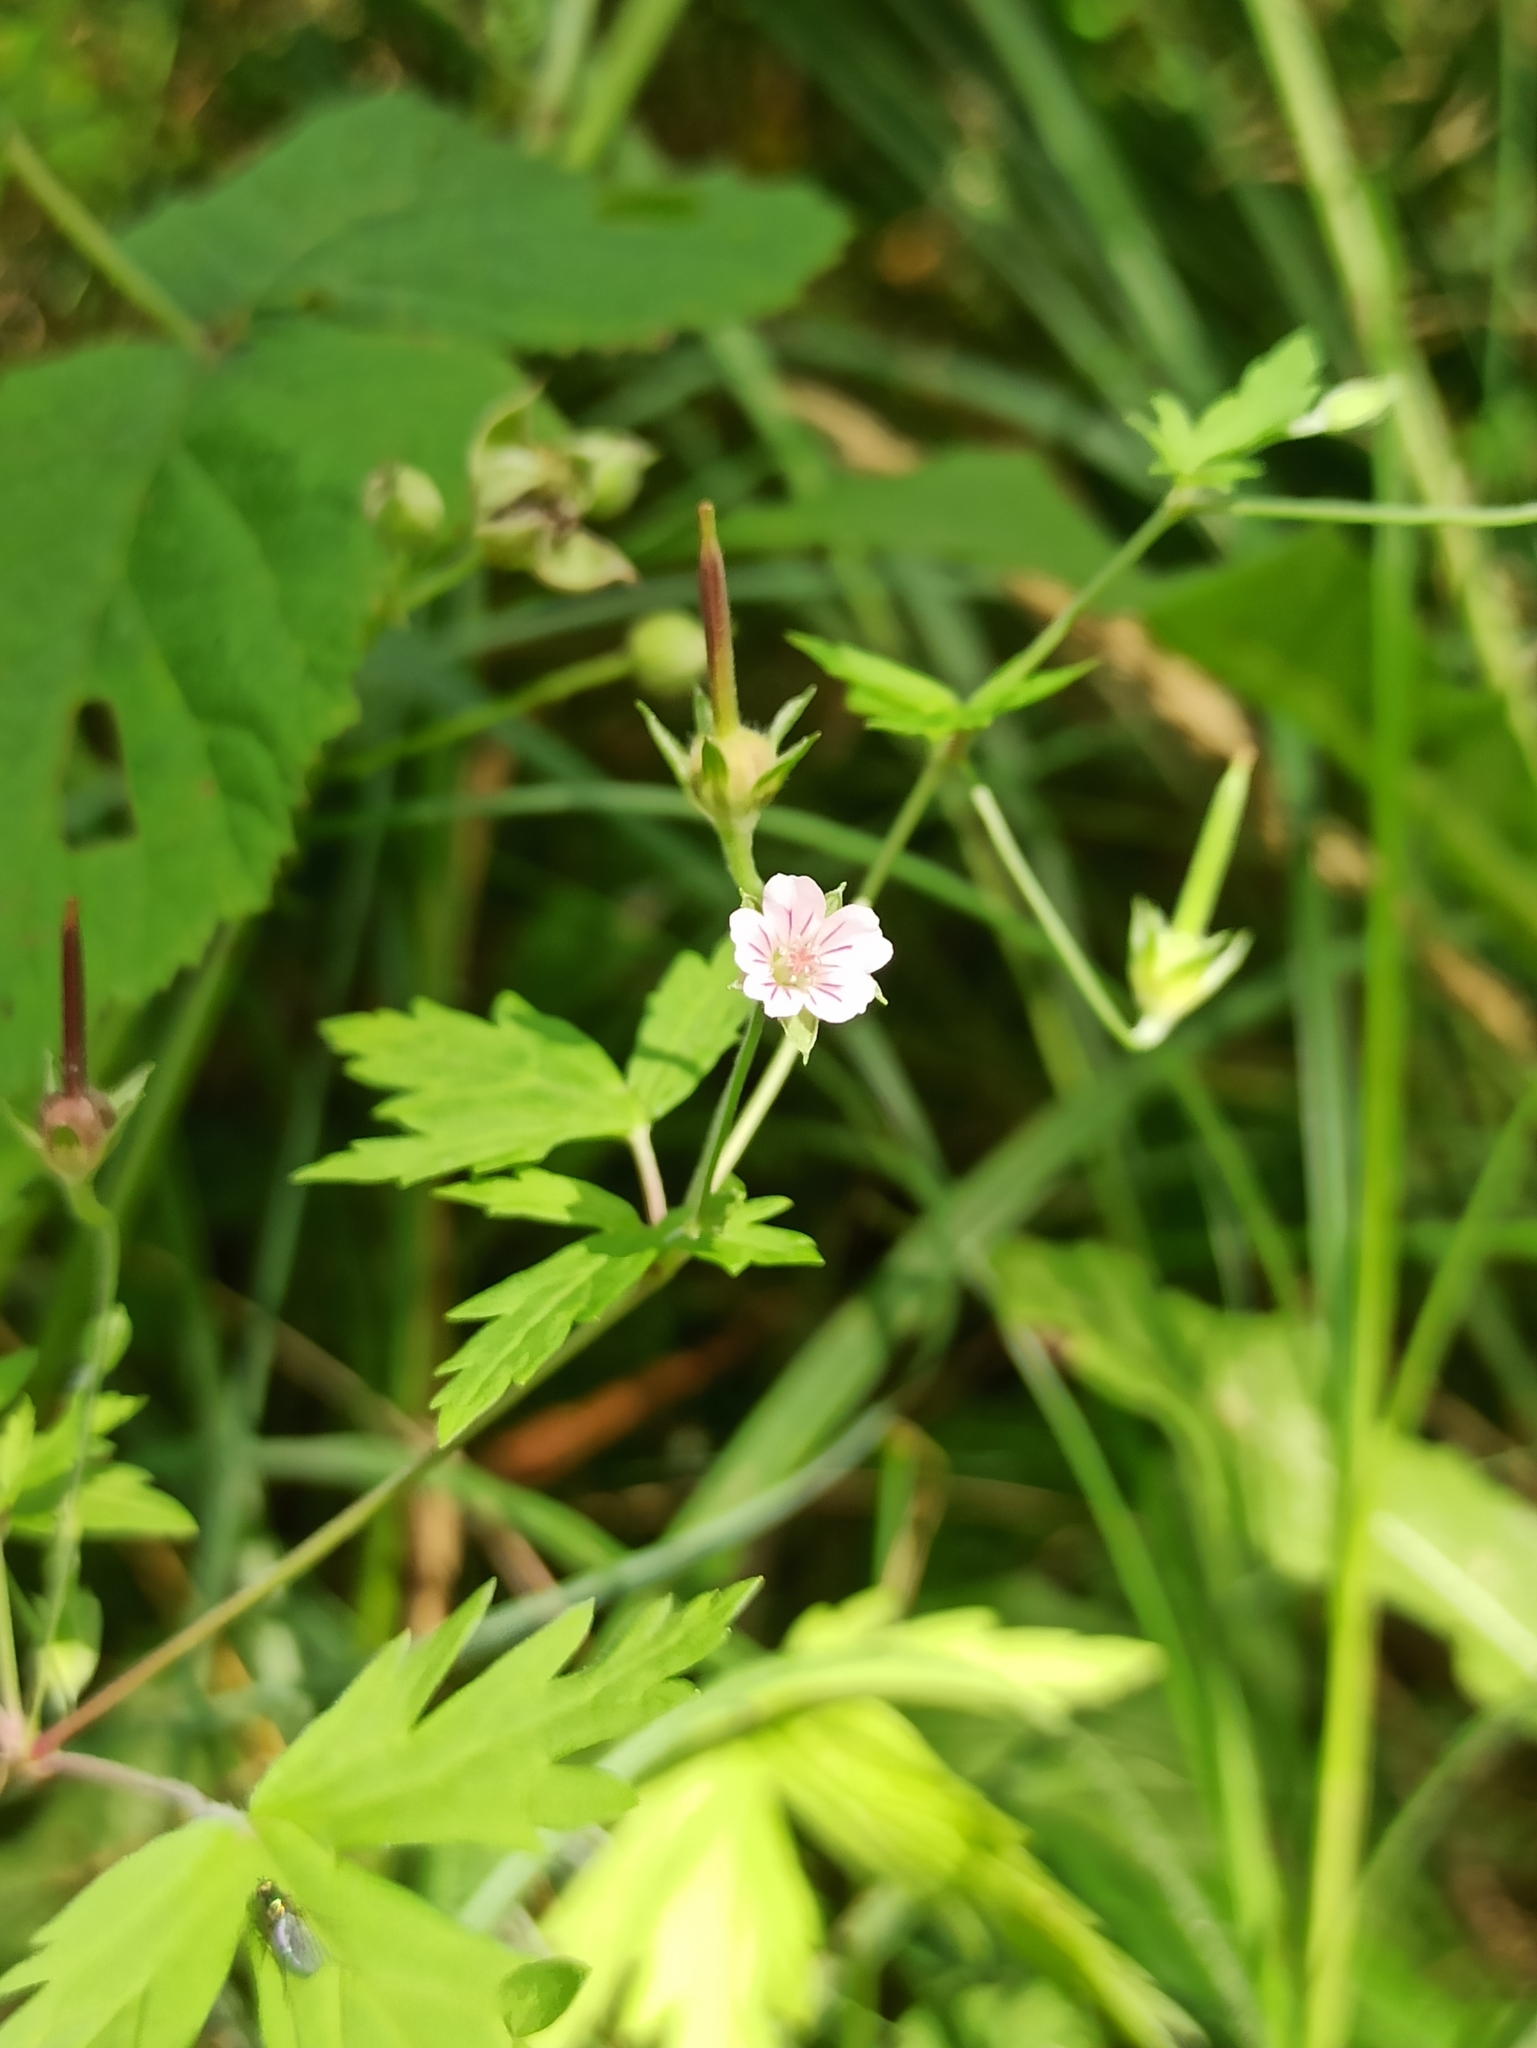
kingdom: Plantae
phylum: Tracheophyta
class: Magnoliopsida
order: Geraniales
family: Geraniaceae
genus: Geranium
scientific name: Geranium sibiricum
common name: Siberian crane's-bill
